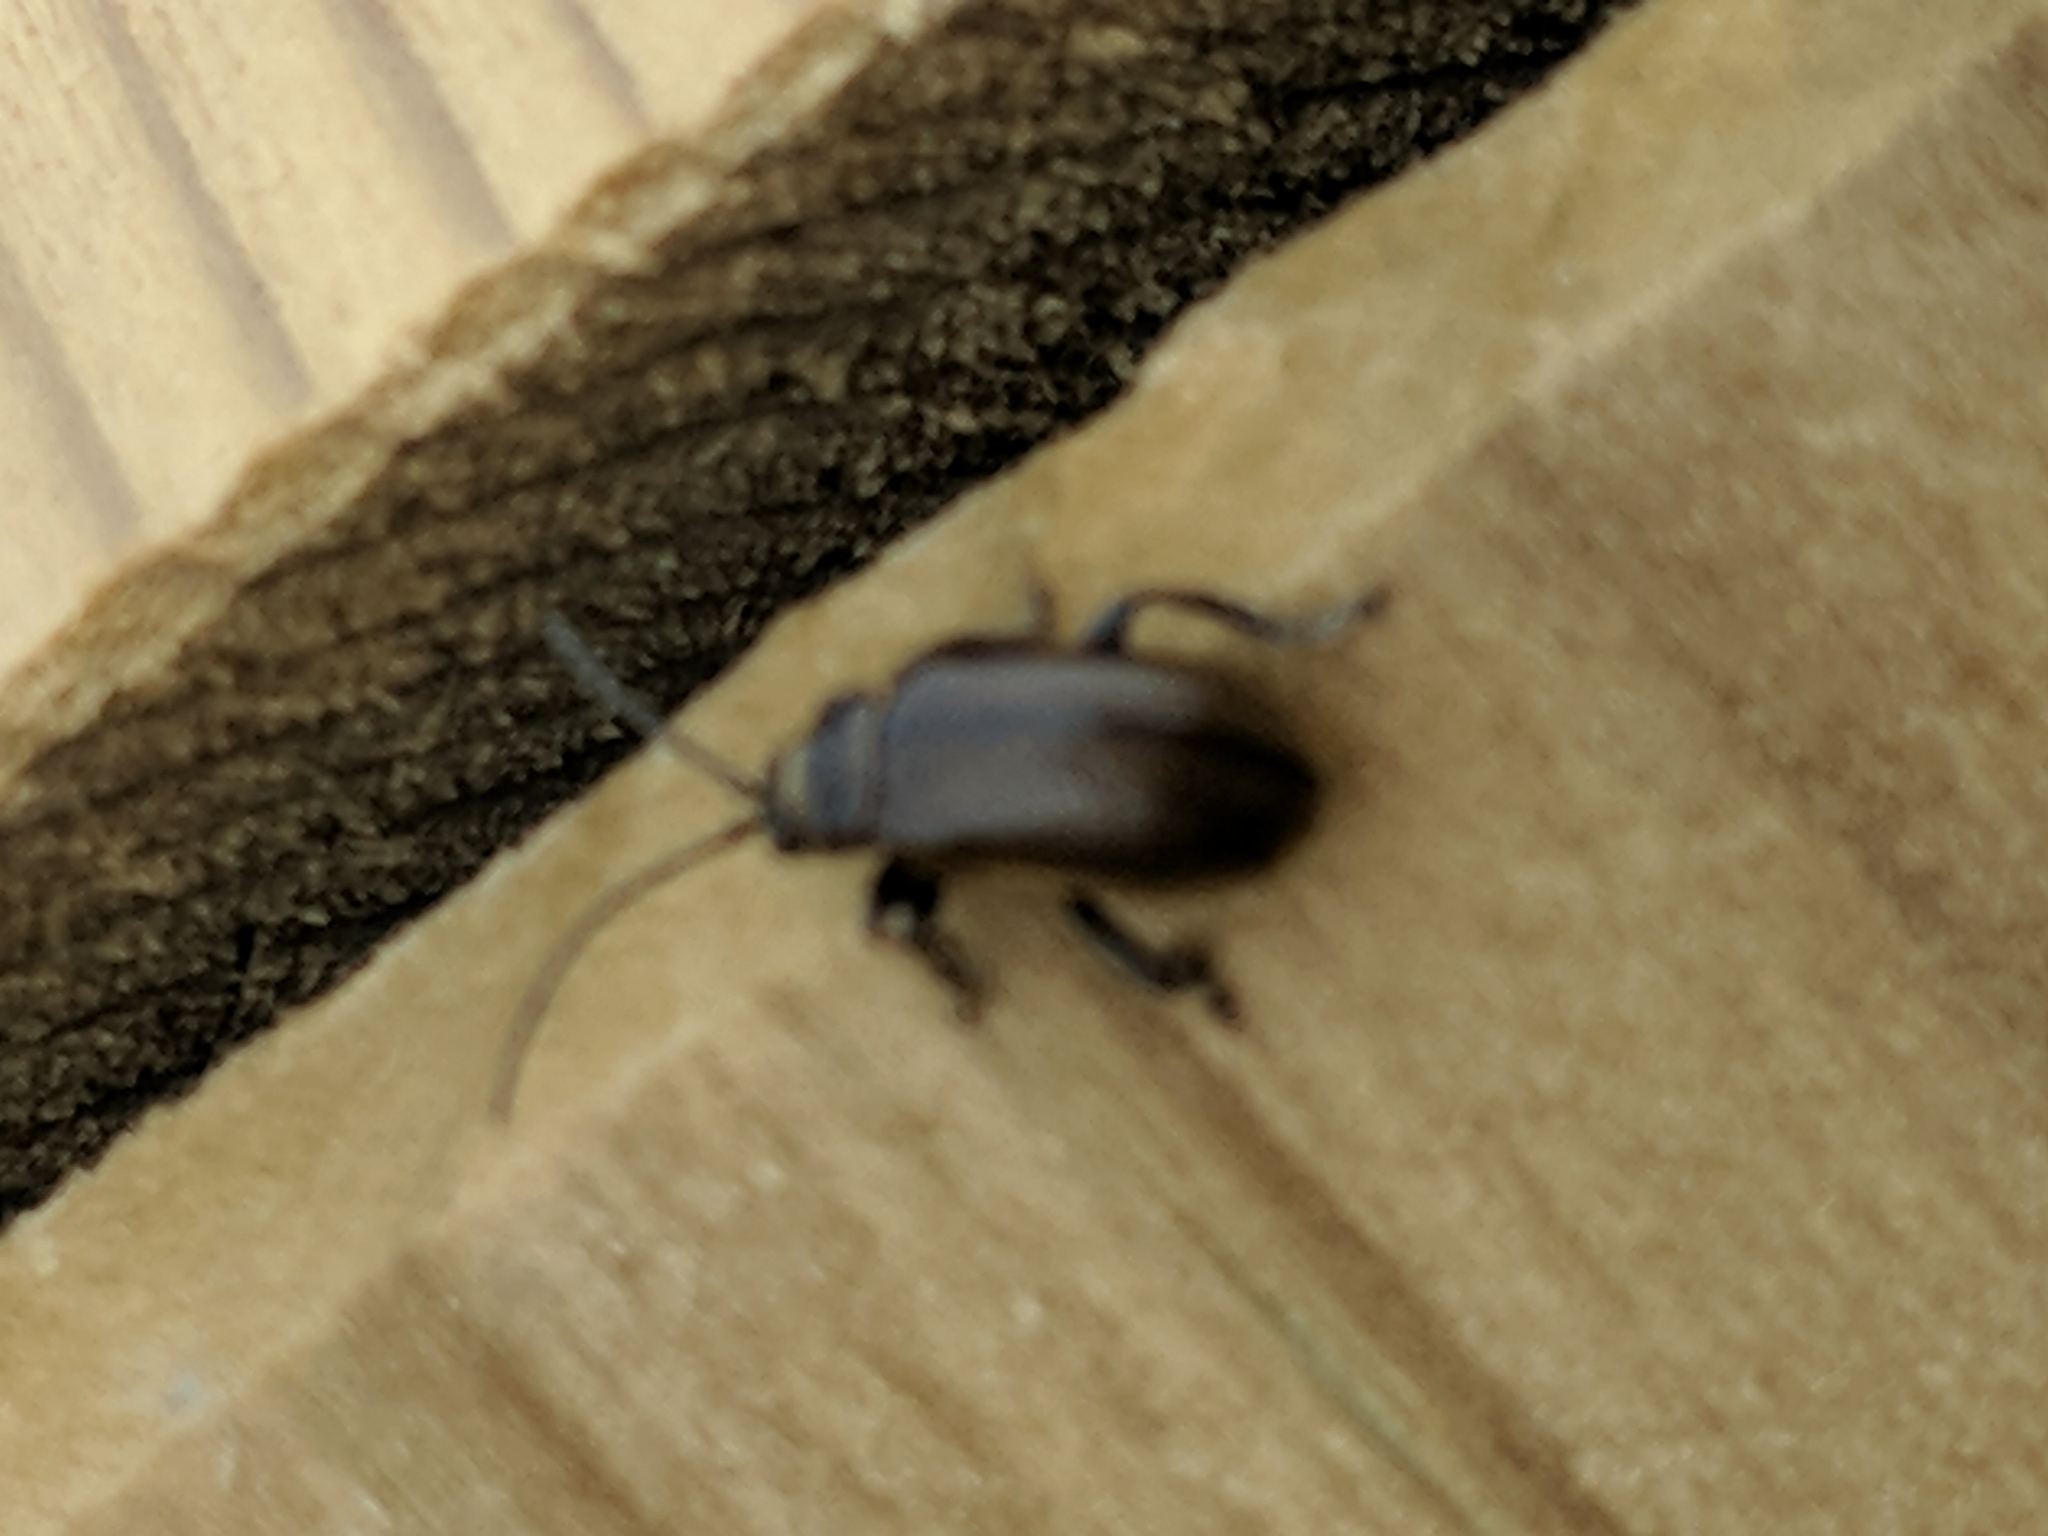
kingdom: Animalia
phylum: Arthropoda
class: Insecta
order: Coleoptera
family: Chrysomelidae
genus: Lochmaea
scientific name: Lochmaea suturalis
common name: Heather beetle
